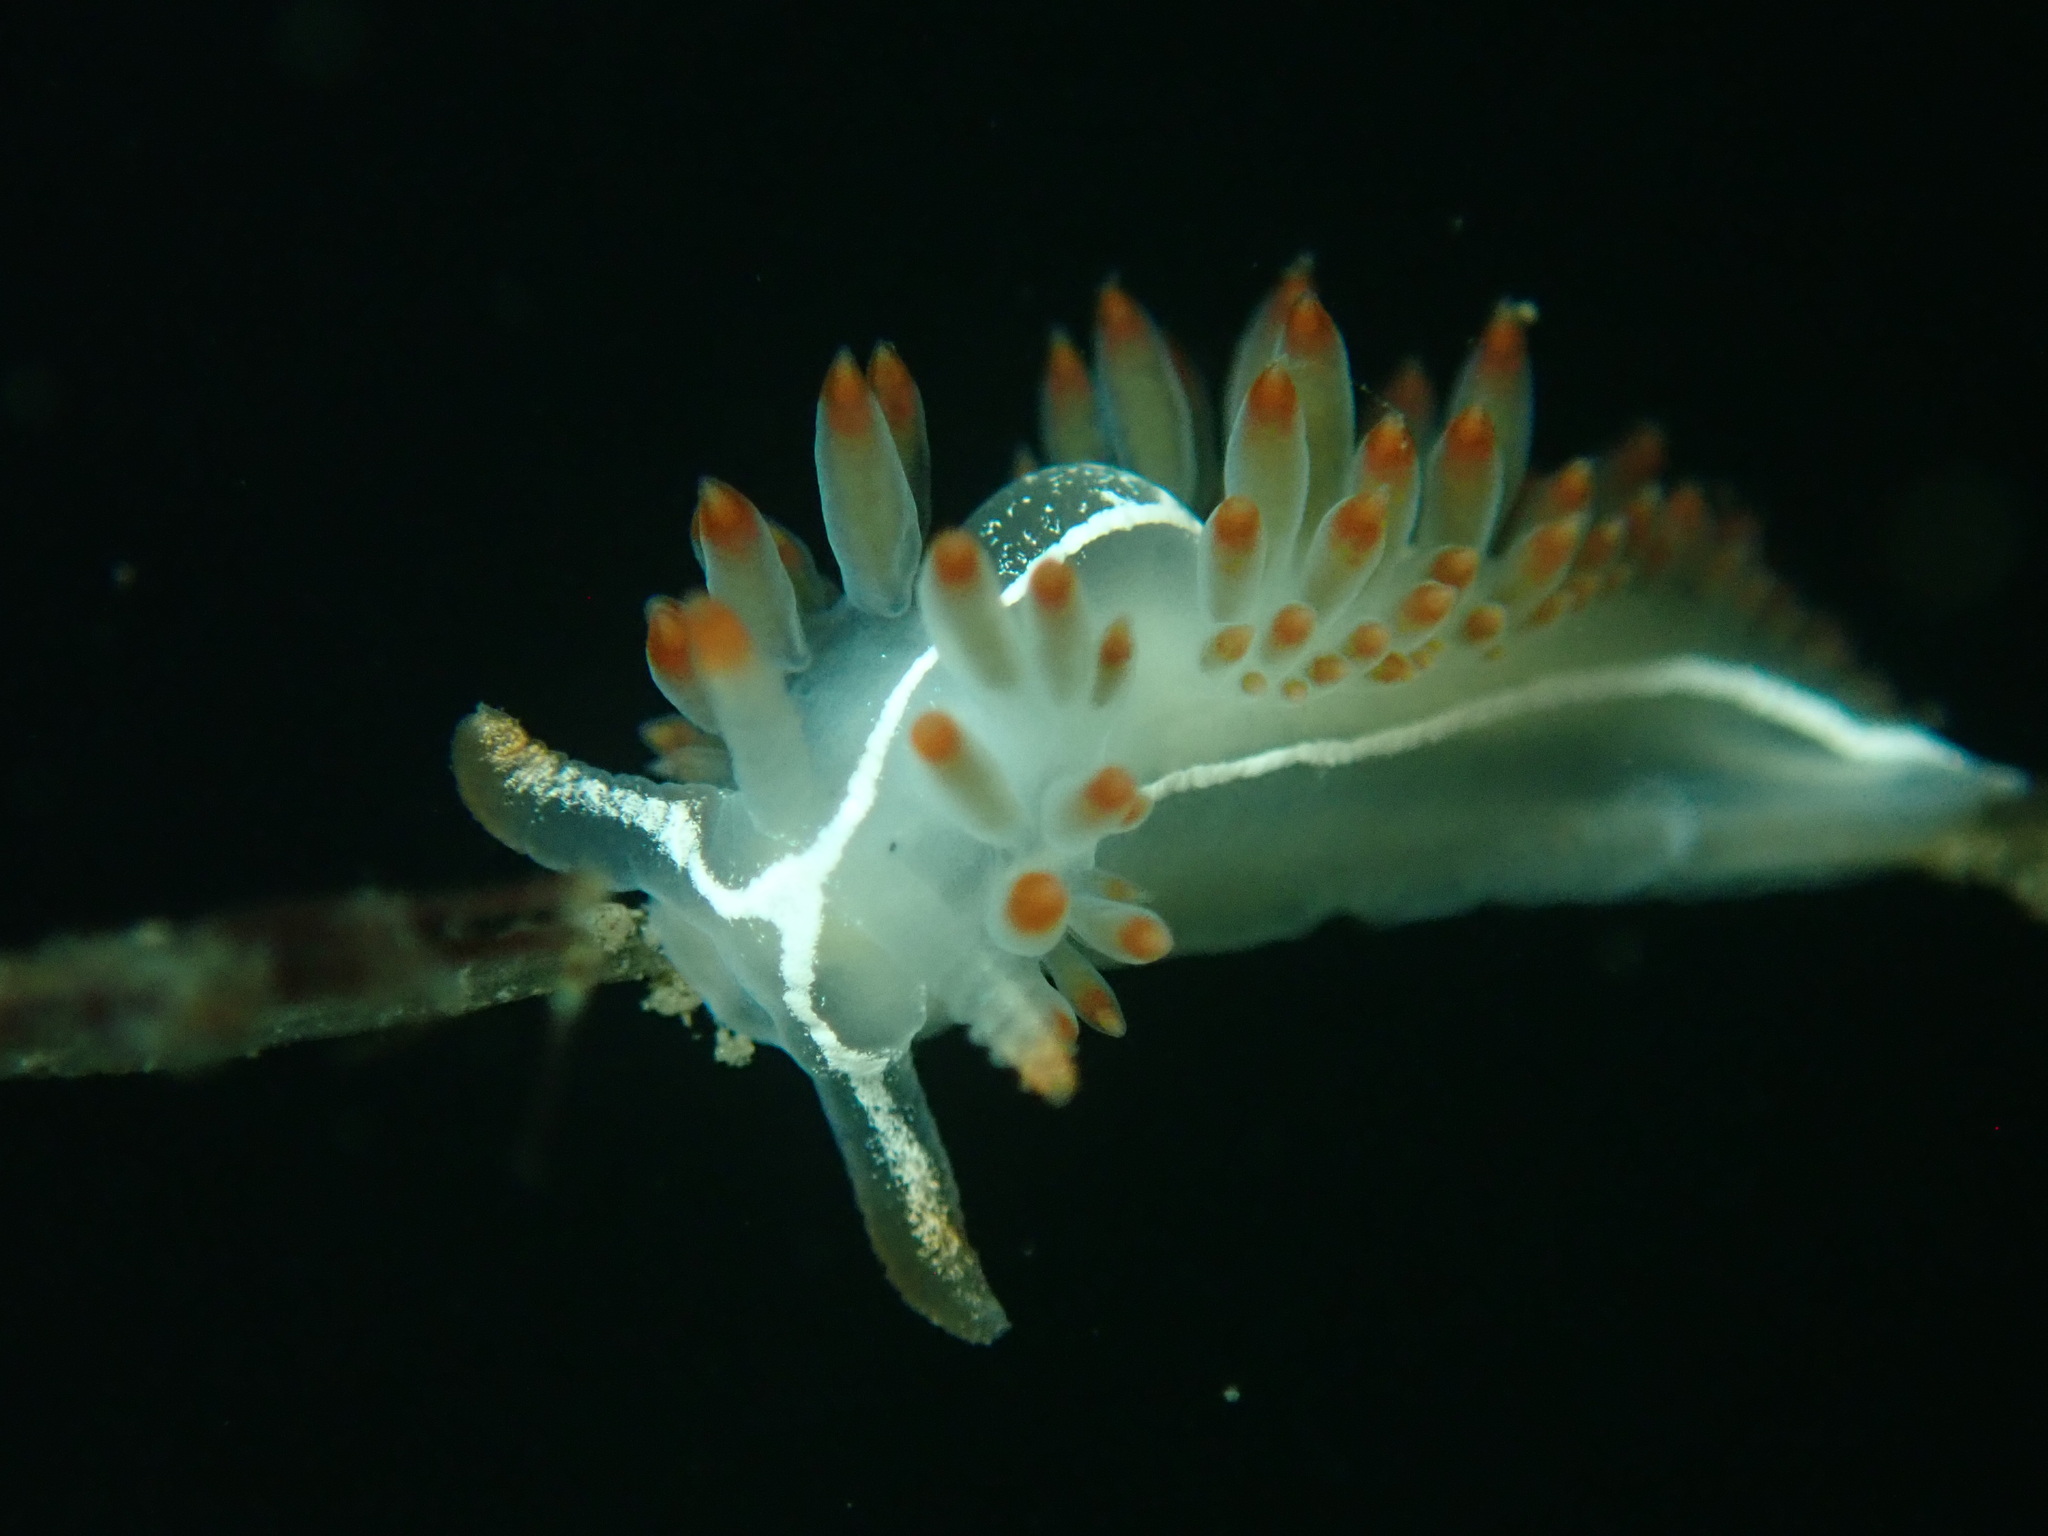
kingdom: Animalia
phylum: Mollusca
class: Gastropoda
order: Nudibranchia
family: Coryphellidae
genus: Coryphella
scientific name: Coryphella trilineata
